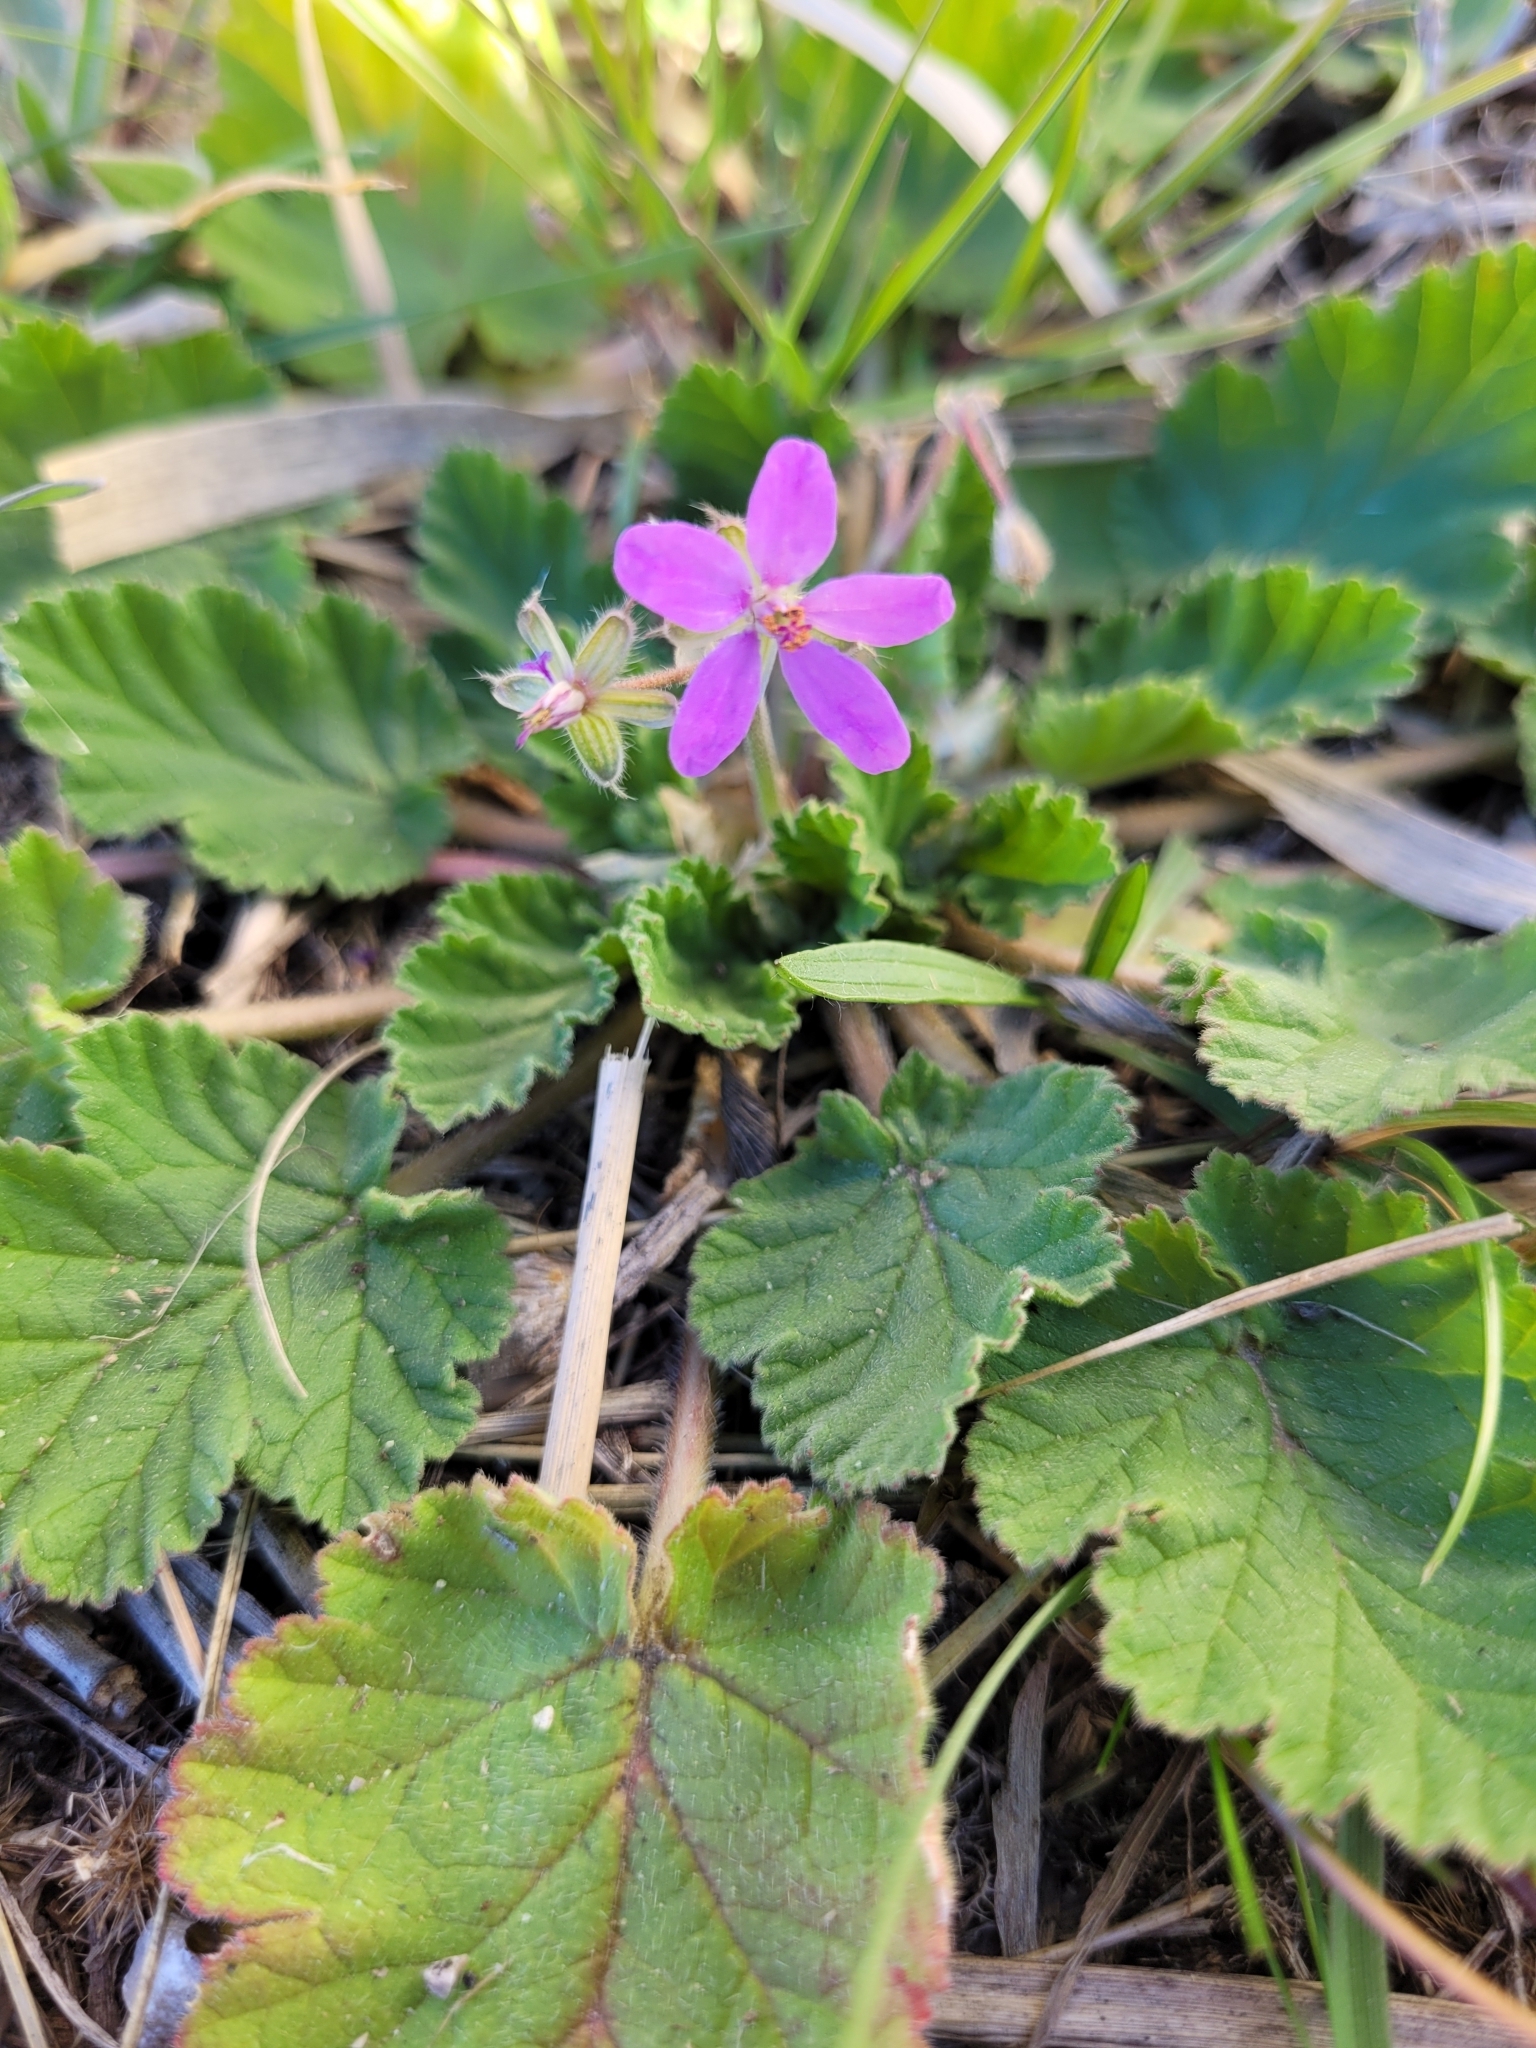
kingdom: Plantae
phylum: Tracheophyta
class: Magnoliopsida
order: Geraniales
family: Geraniaceae
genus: Erodium
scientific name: Erodium malacoides
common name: Soft stork's-bill
